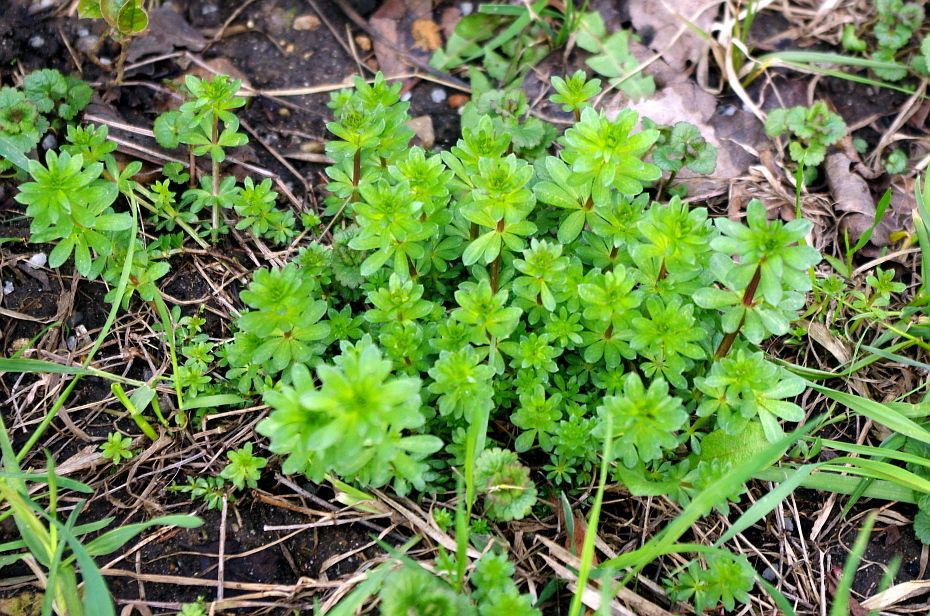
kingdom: Plantae
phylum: Tracheophyta
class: Magnoliopsida
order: Gentianales
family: Rubiaceae
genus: Galium
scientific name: Galium mollugo
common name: Hedge bedstraw
